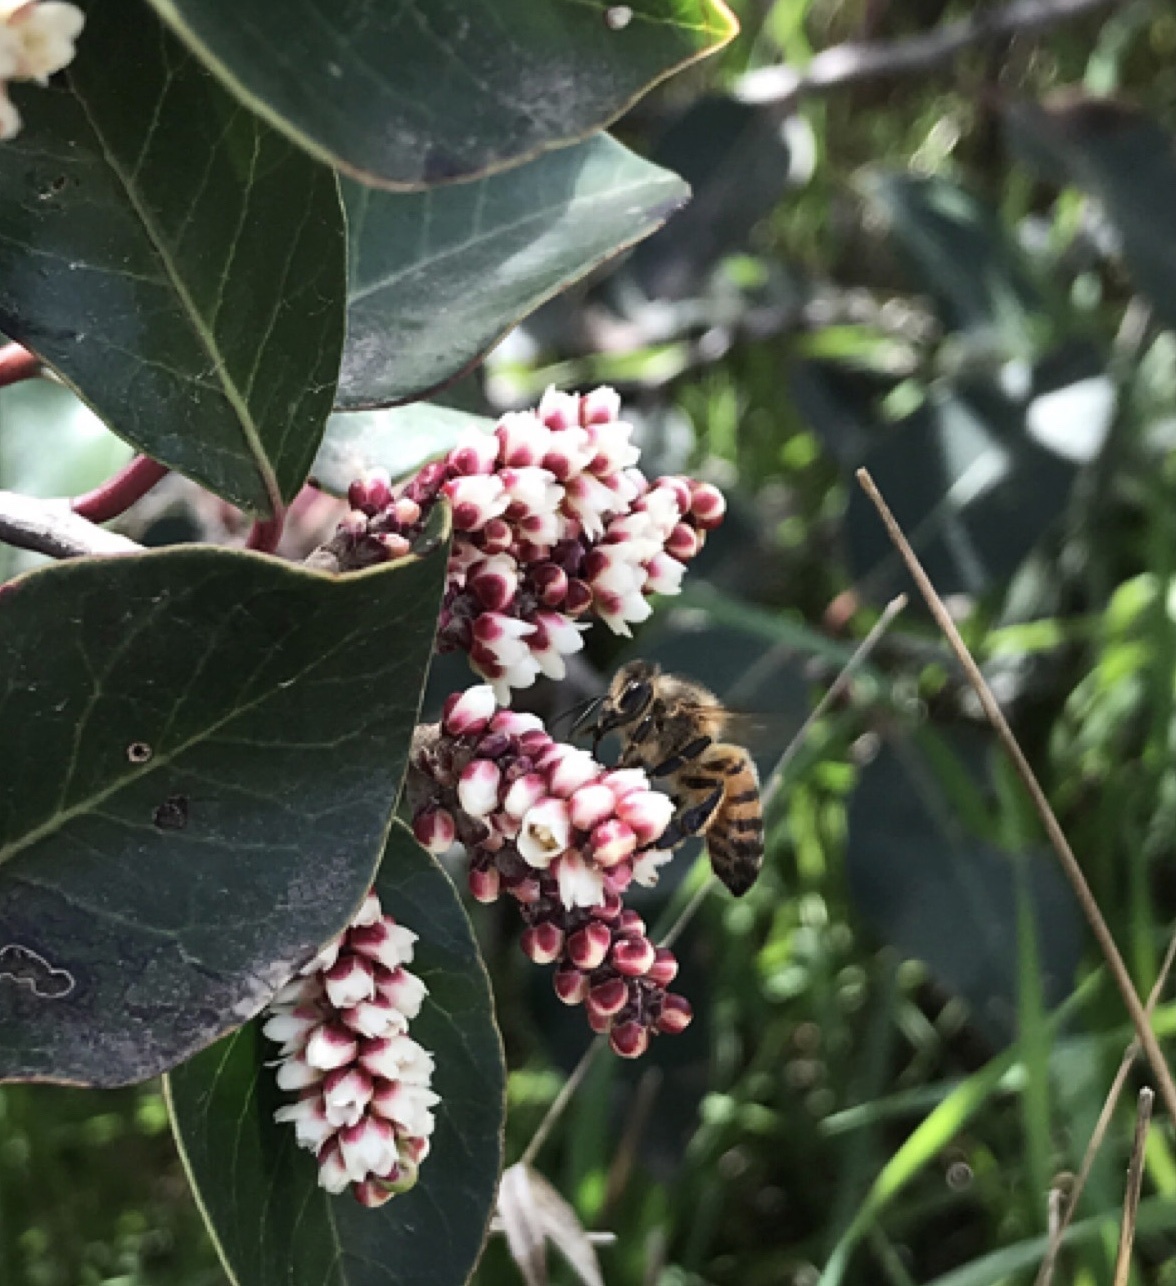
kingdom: Animalia
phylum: Arthropoda
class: Insecta
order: Hymenoptera
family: Apidae
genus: Apis
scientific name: Apis mellifera
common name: Honey bee
